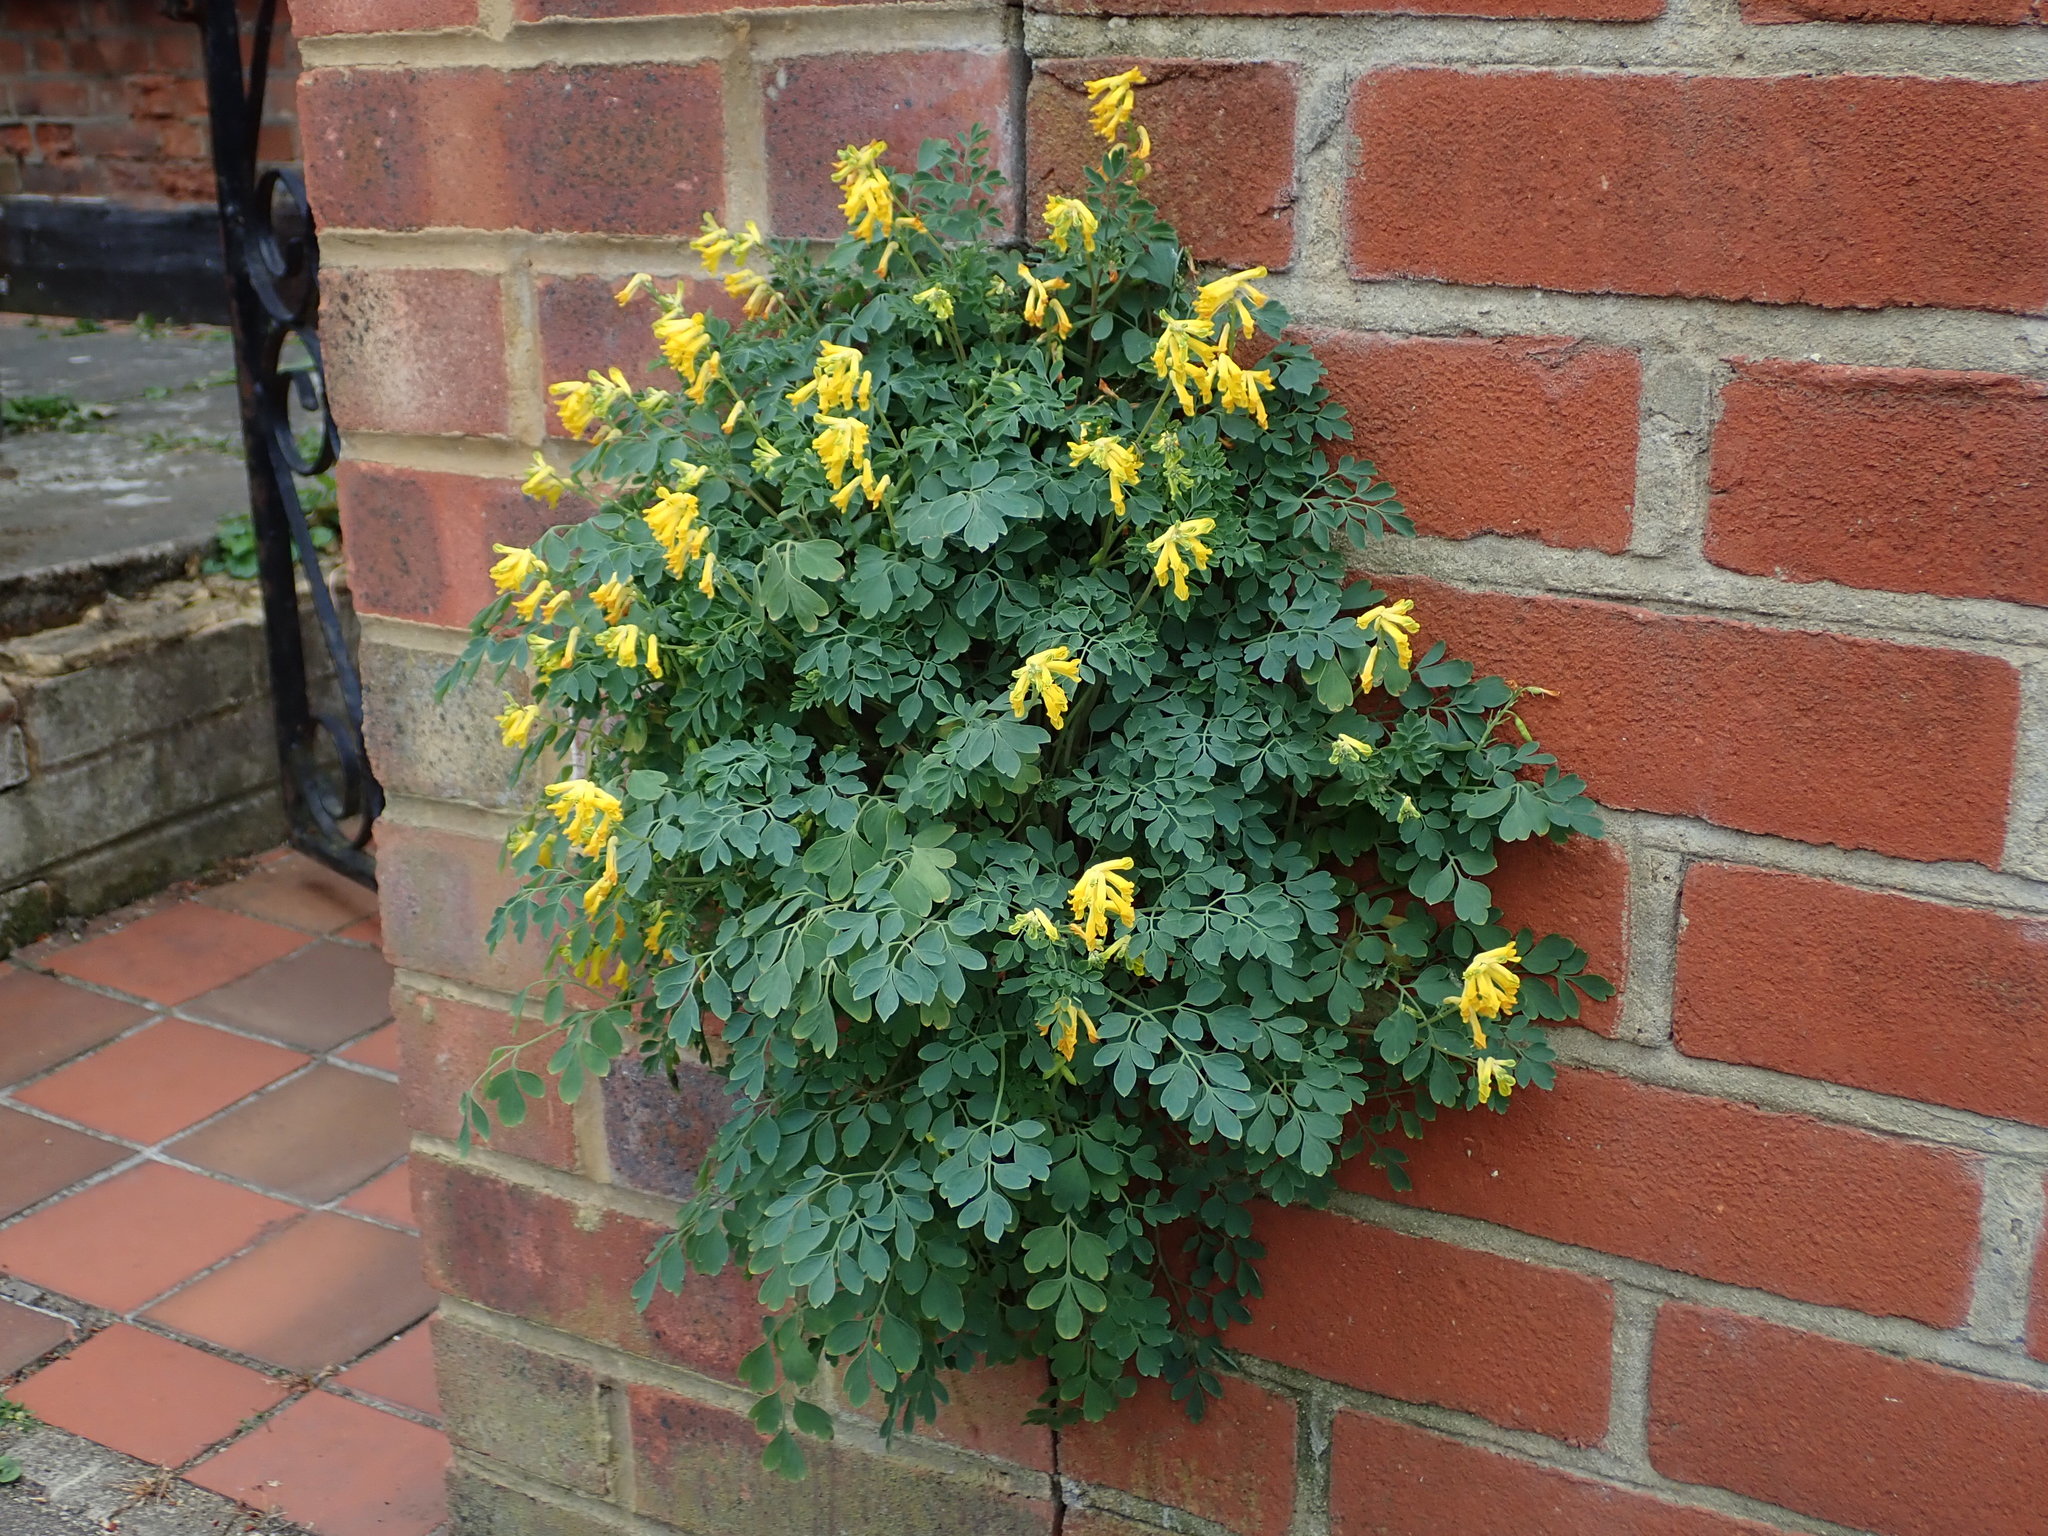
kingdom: Plantae
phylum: Tracheophyta
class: Magnoliopsida
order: Ranunculales
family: Papaveraceae
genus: Pseudofumaria
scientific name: Pseudofumaria lutea
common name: Yellow corydalis
